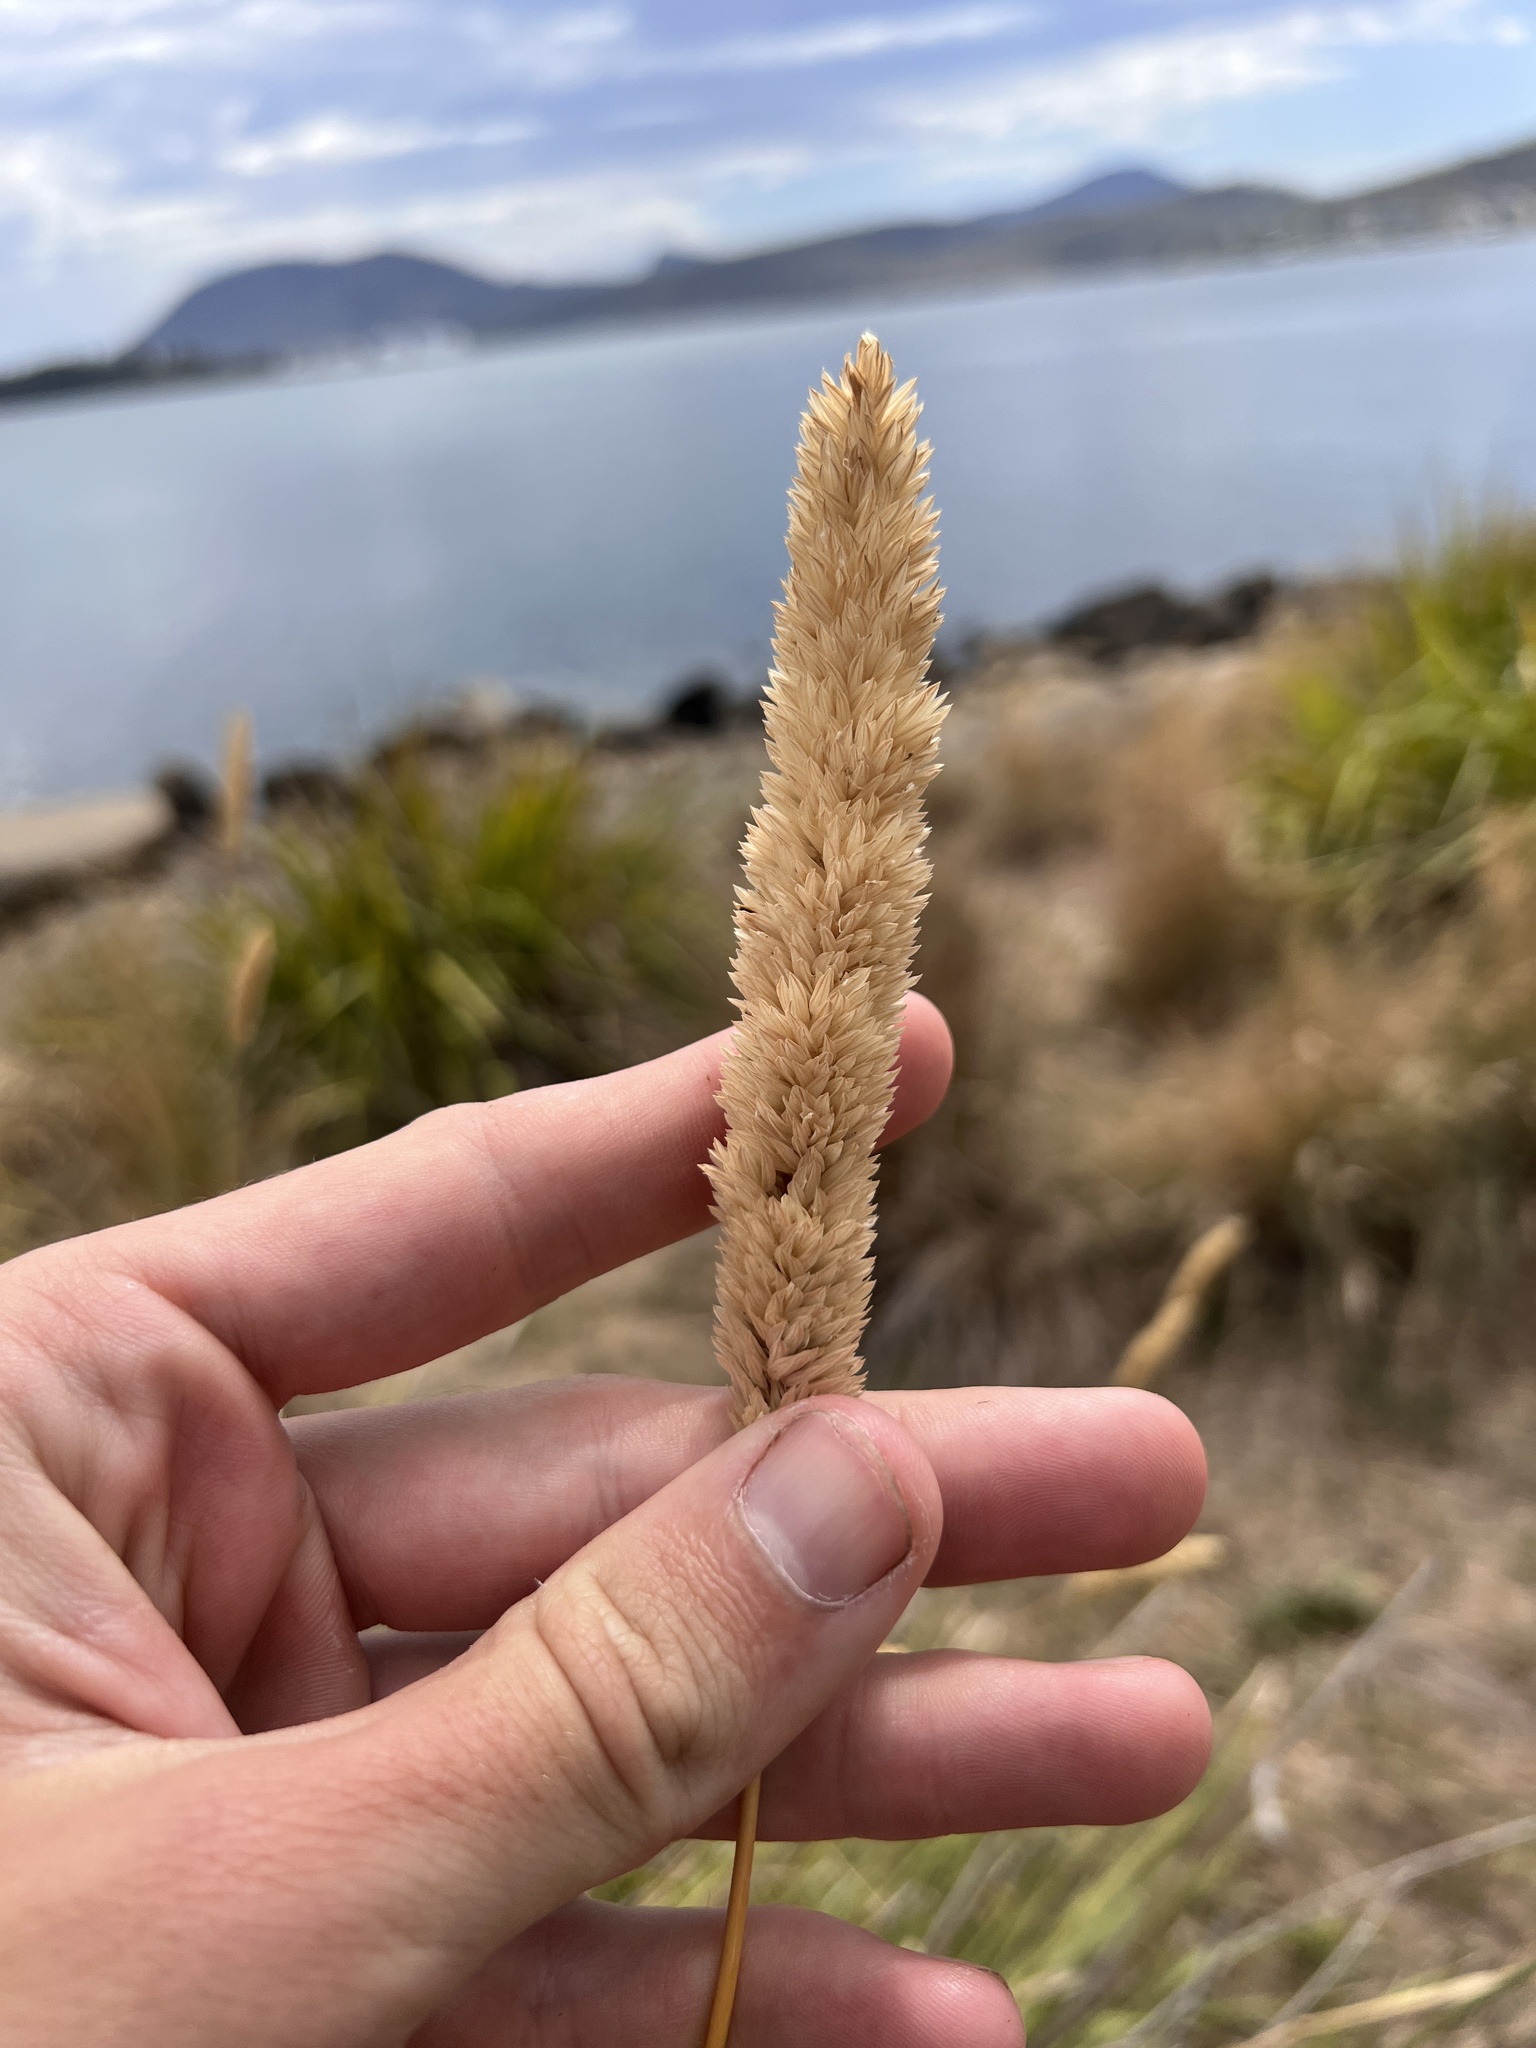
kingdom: Plantae
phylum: Tracheophyta
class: Liliopsida
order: Poales
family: Poaceae
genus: Phalaris
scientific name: Phalaris aquatica
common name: Bulbous canary-grass
